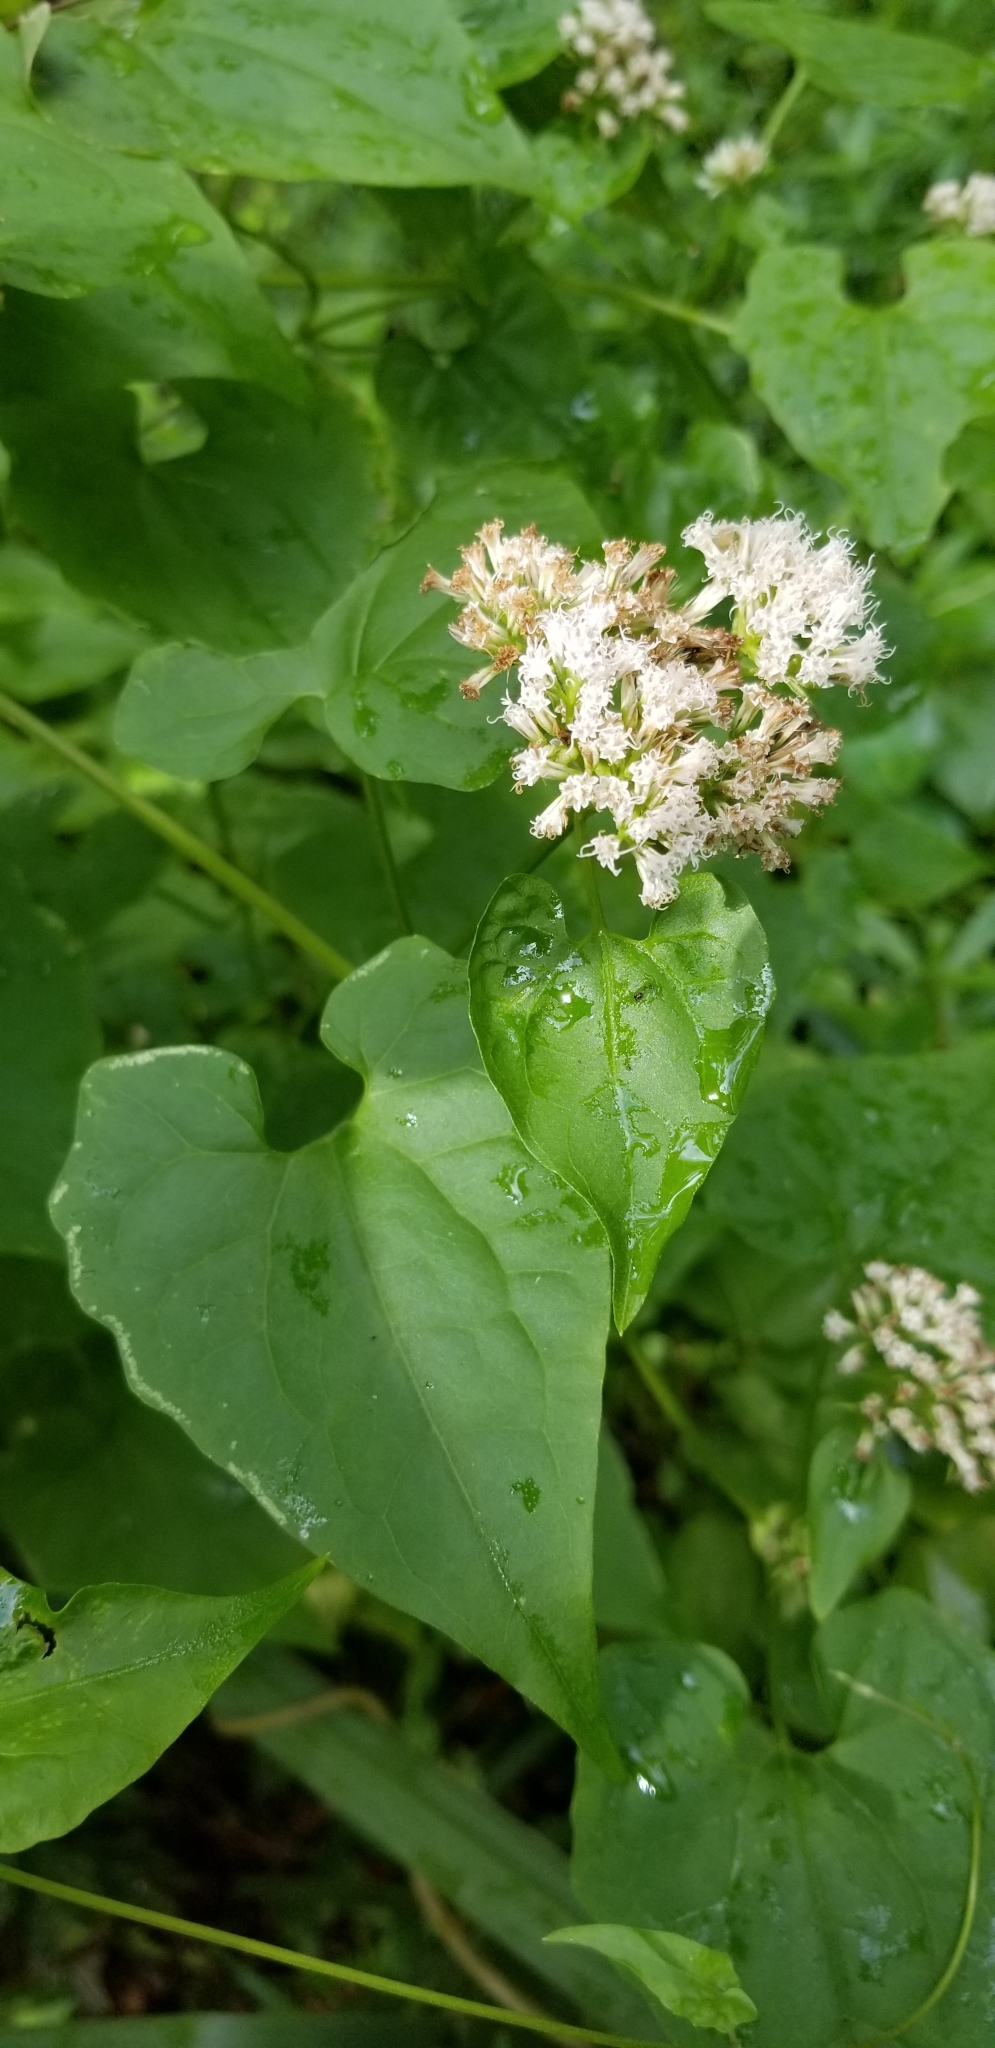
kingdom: Plantae
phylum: Tracheophyta
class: Magnoliopsida
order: Asterales
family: Asteraceae
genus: Mikania
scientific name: Mikania scandens
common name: Climbing hempvine
